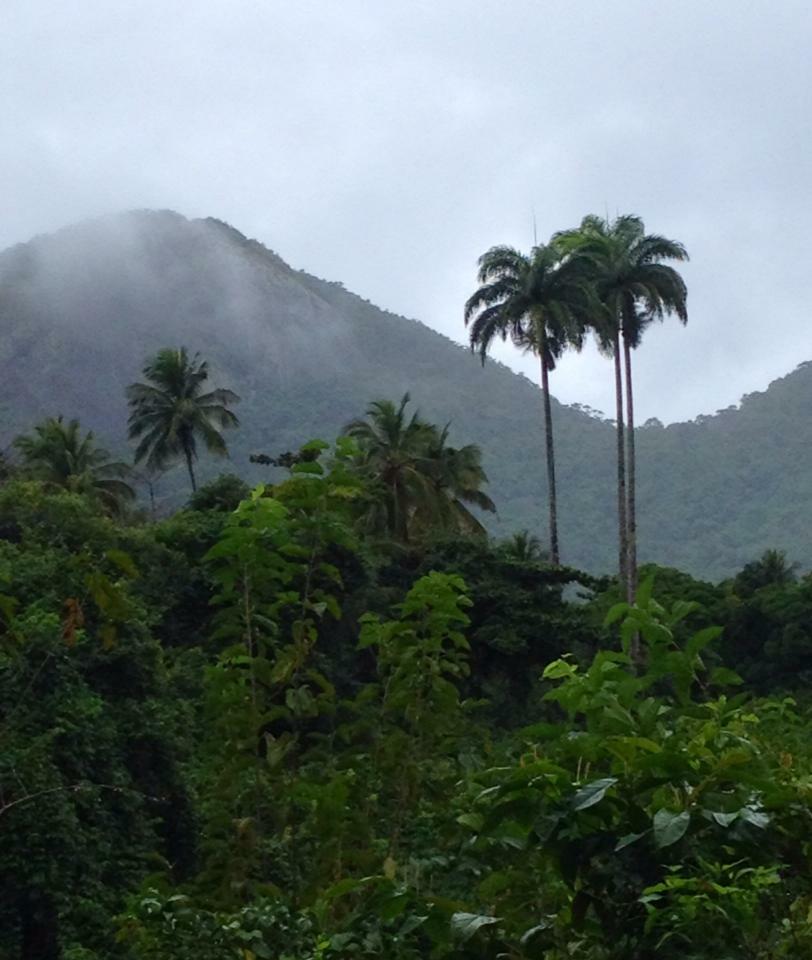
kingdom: Plantae
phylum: Tracheophyta
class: Liliopsida
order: Arecales
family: Arecaceae
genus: Roystonea
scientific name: Roystonea oleracea
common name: South american royal palm
